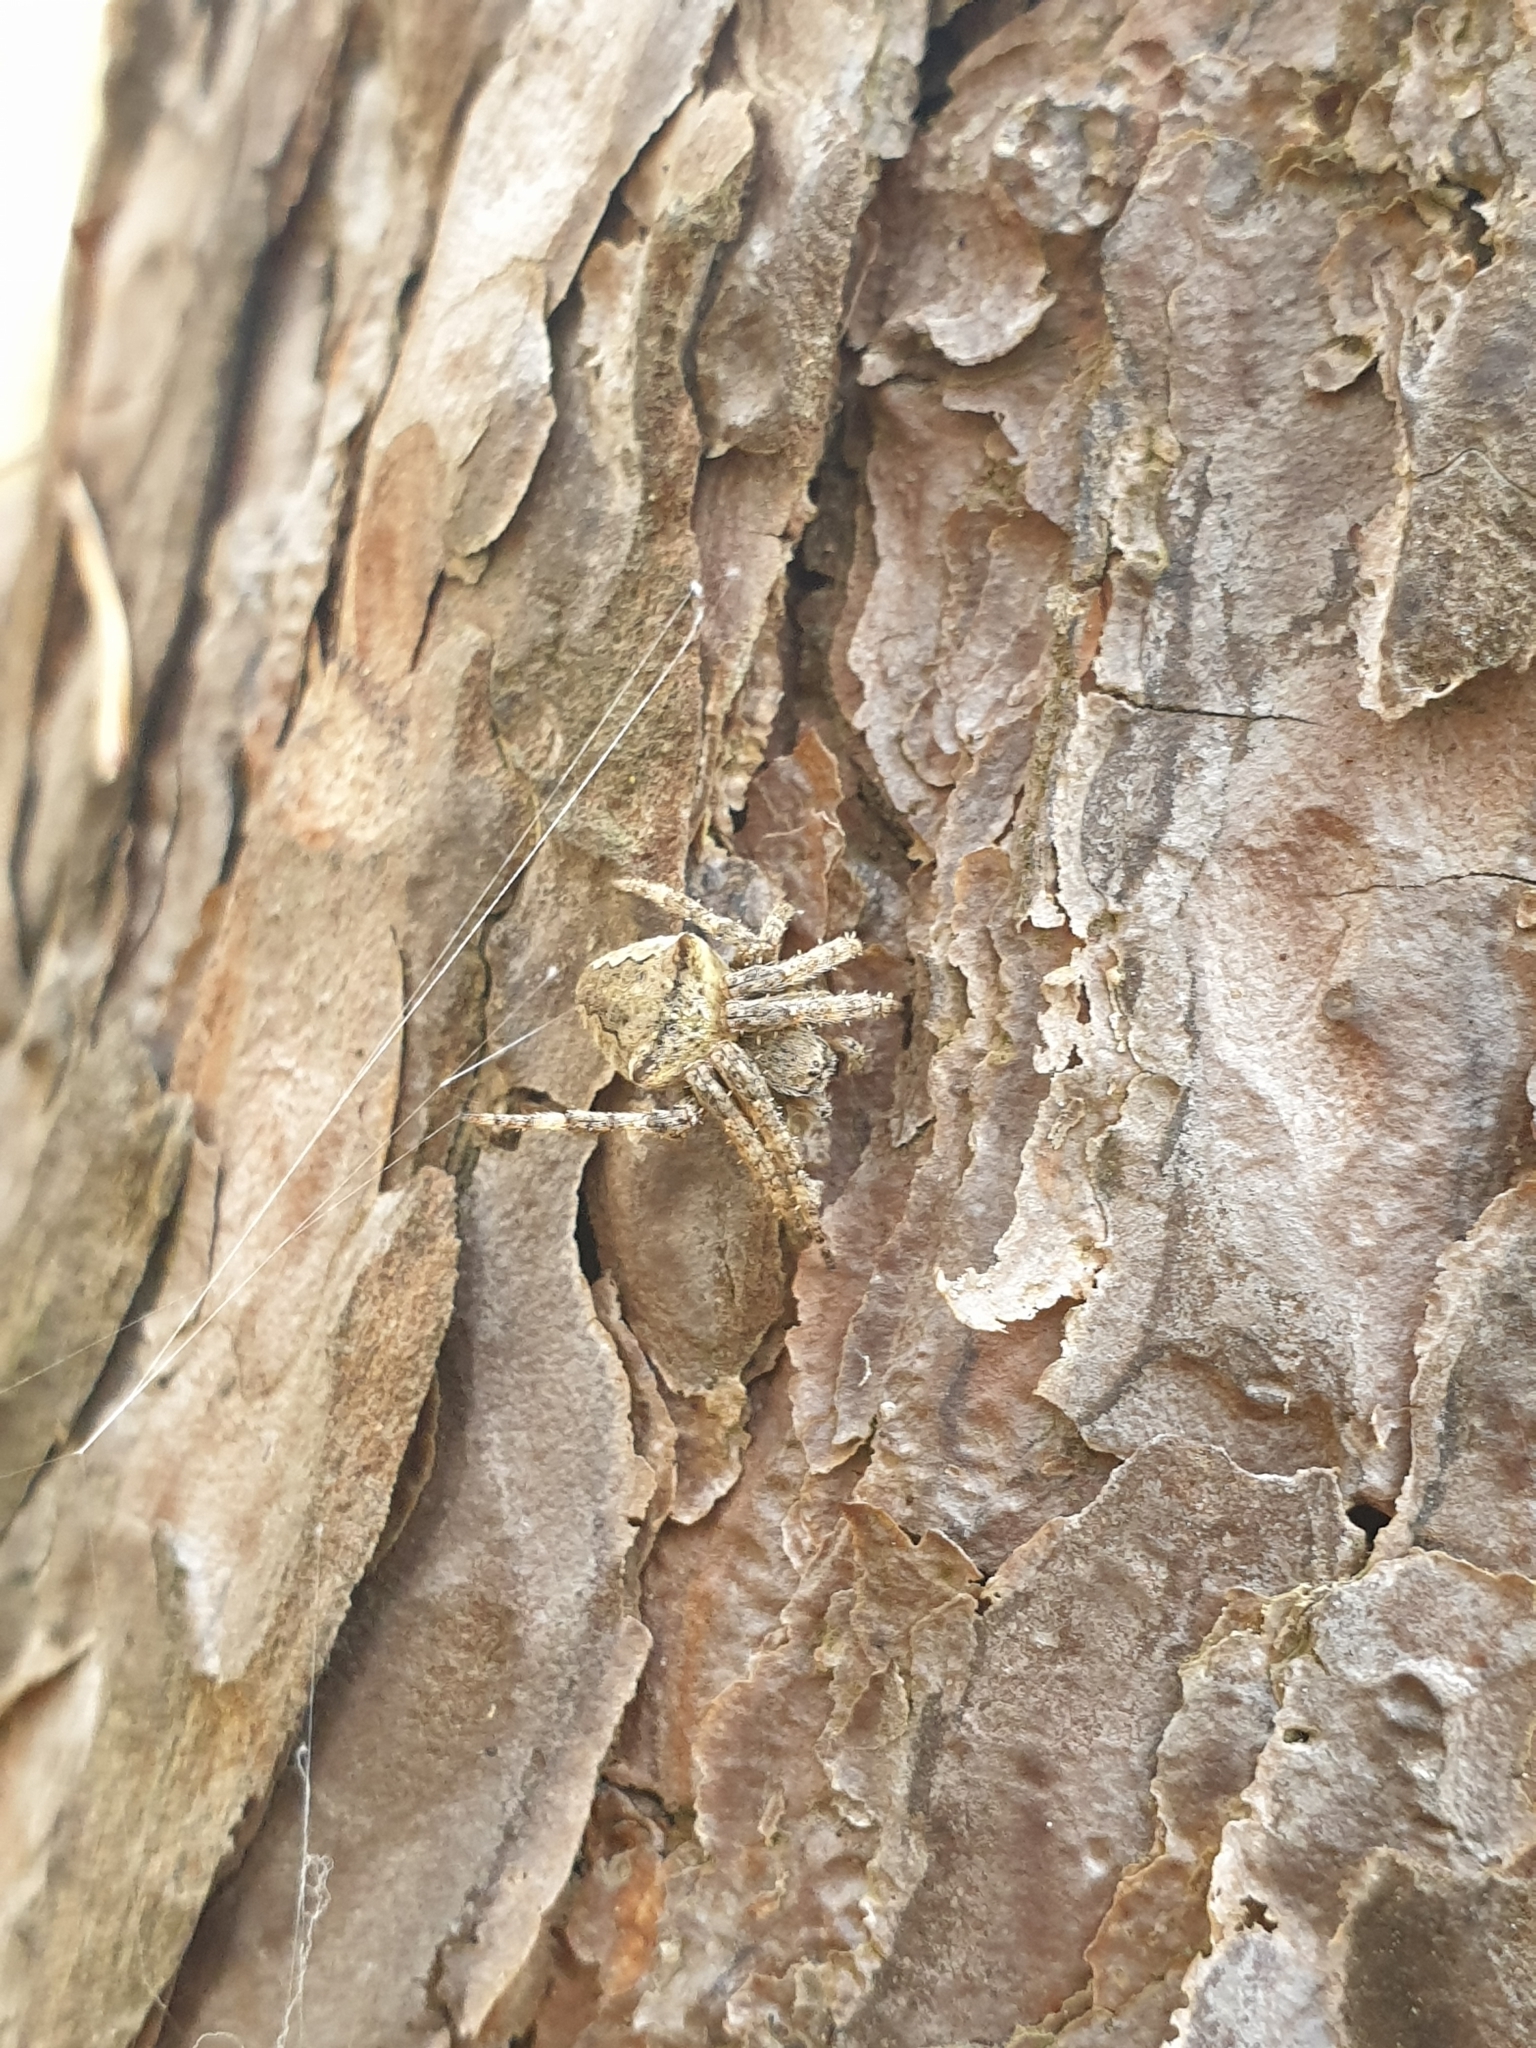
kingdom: Animalia
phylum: Arthropoda
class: Arachnida
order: Araneae
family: Araneidae
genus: Araneus
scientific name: Araneus angulatus
